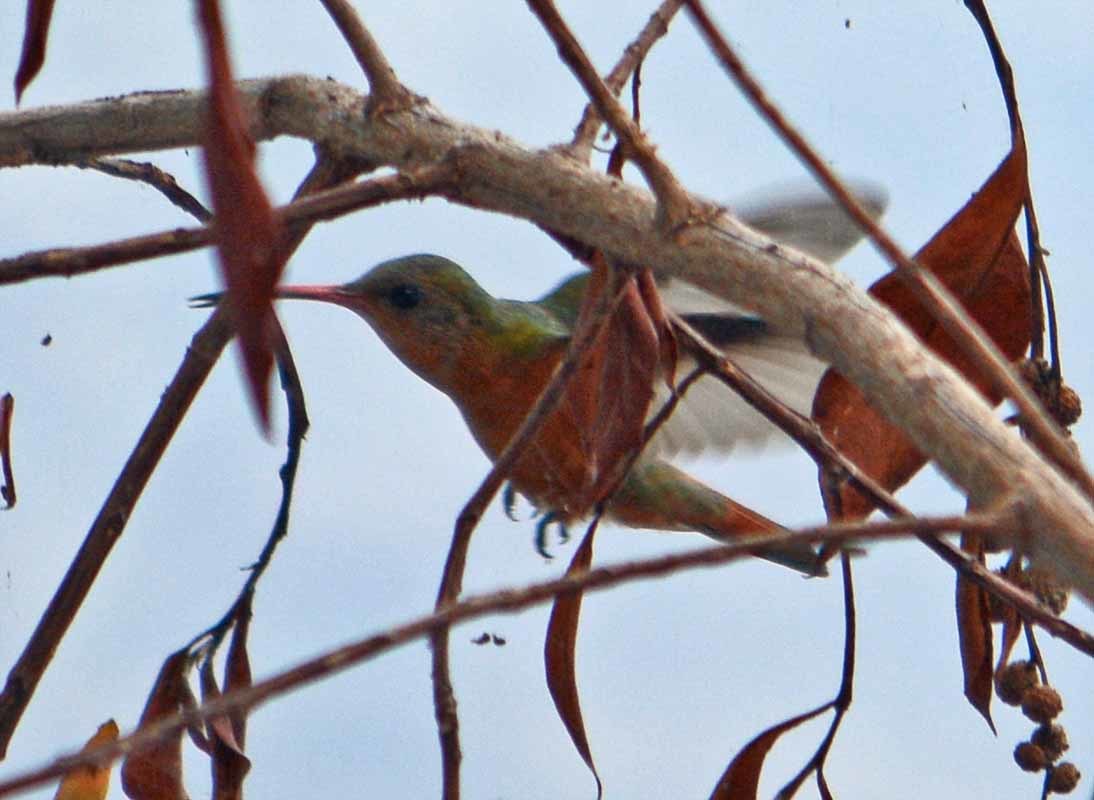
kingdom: Animalia
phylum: Chordata
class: Aves
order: Apodiformes
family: Trochilidae
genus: Amazilia
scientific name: Amazilia rutila
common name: Cinnamon hummingbird
